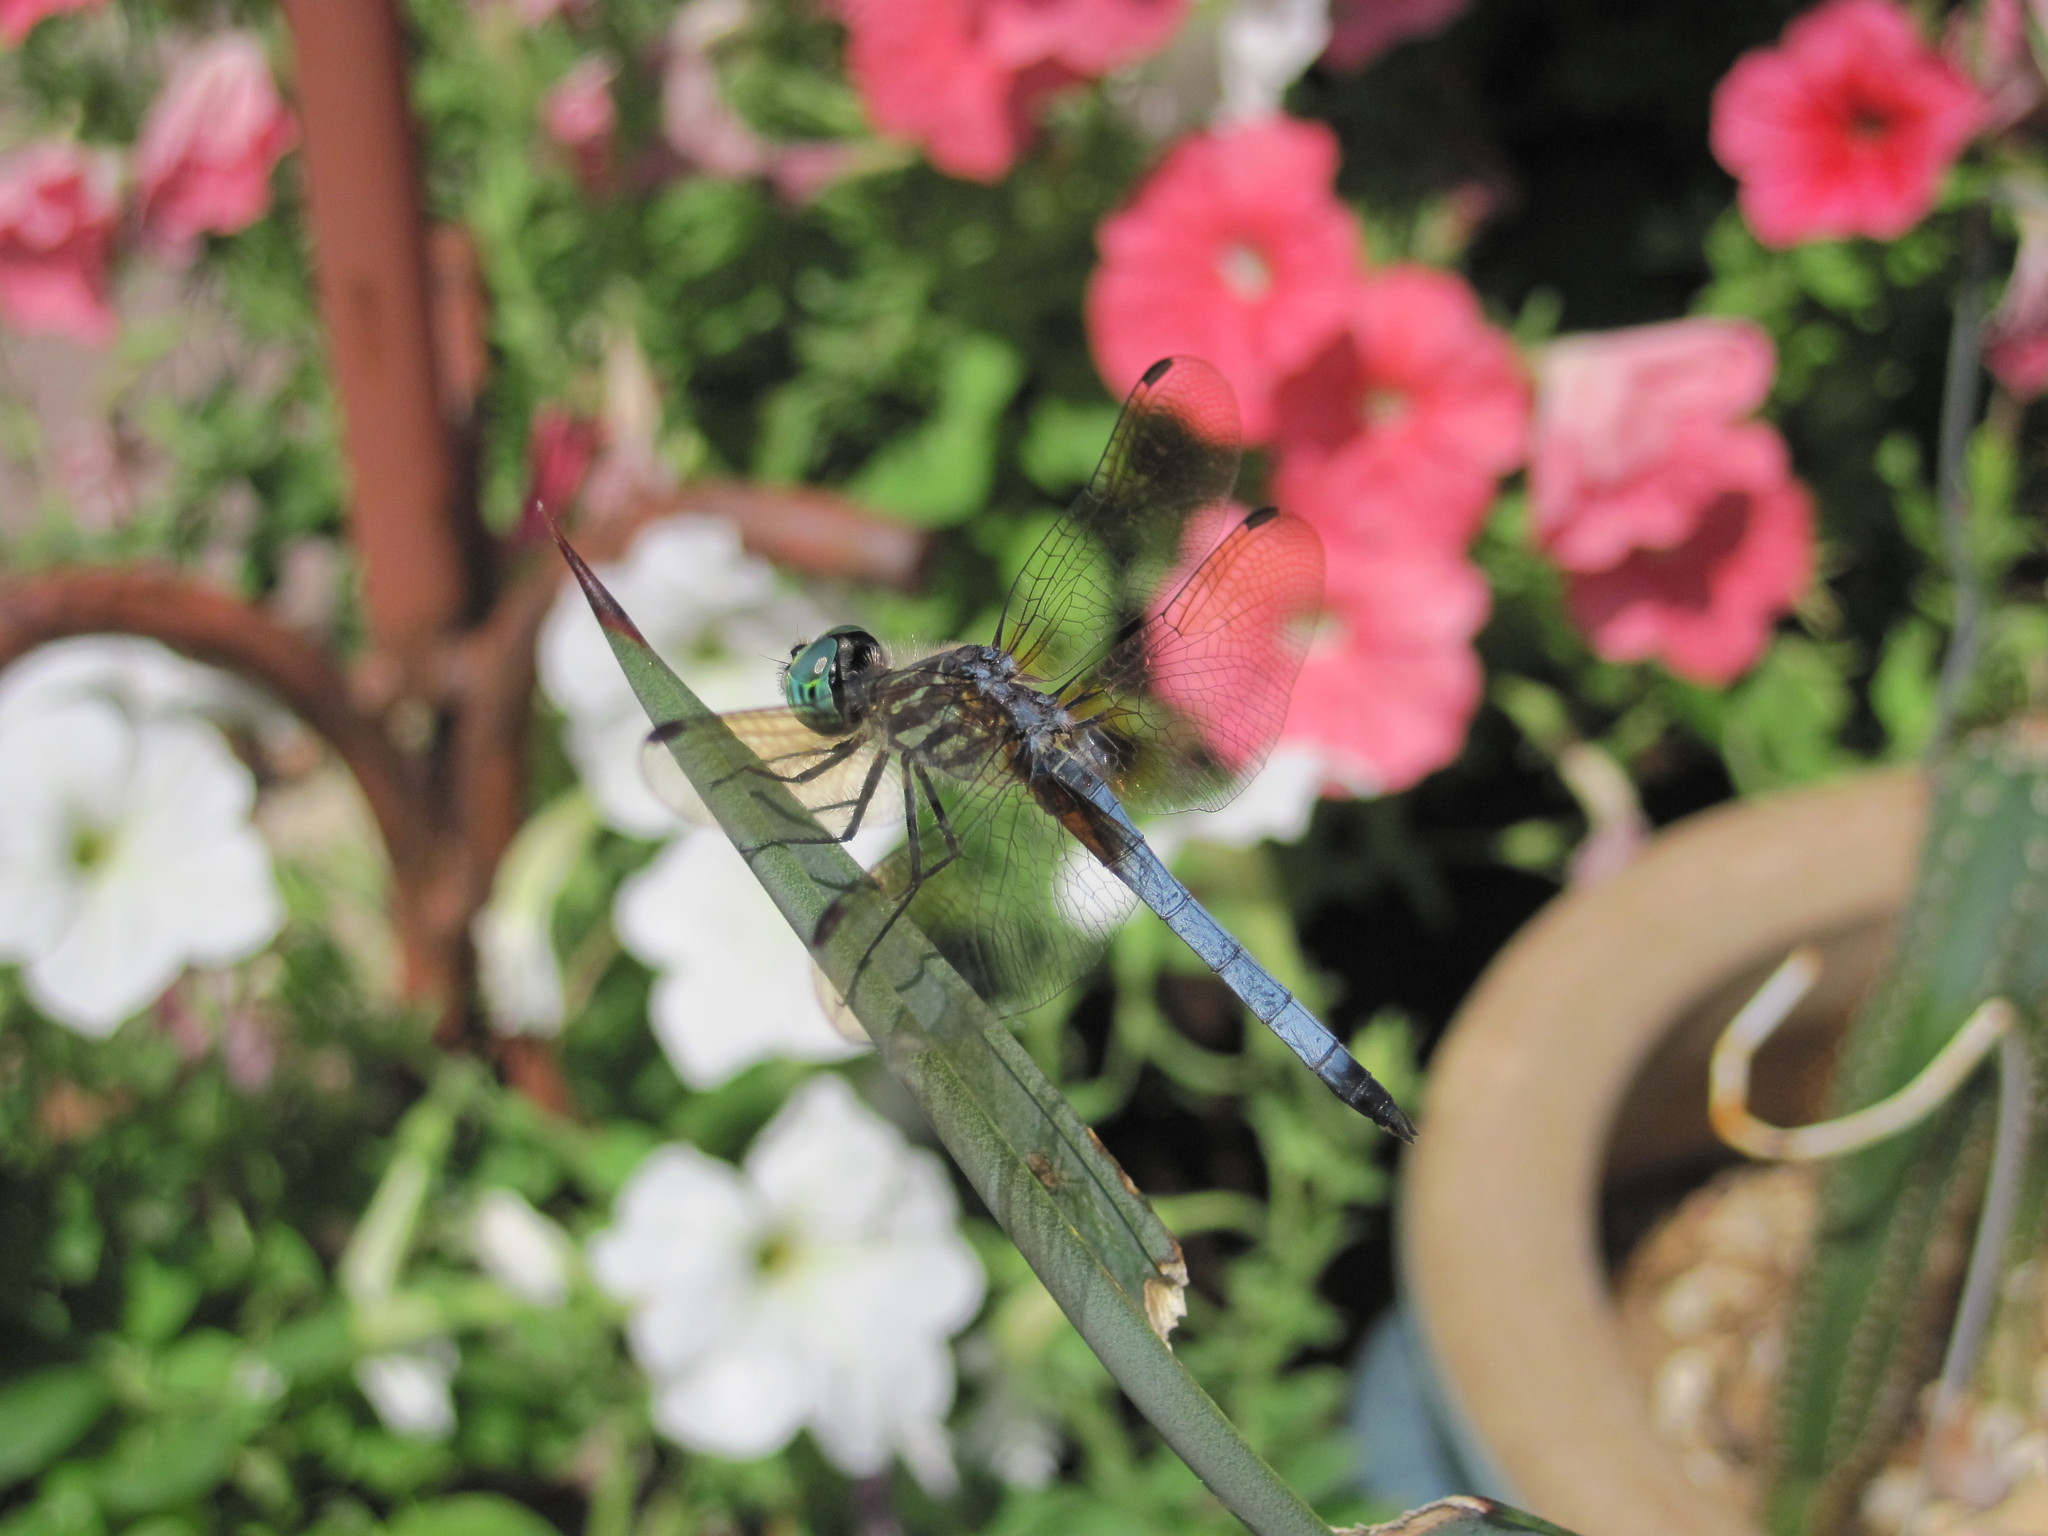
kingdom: Animalia
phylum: Arthropoda
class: Insecta
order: Odonata
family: Libellulidae
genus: Pachydiplax
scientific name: Pachydiplax longipennis
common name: Blue dasher
